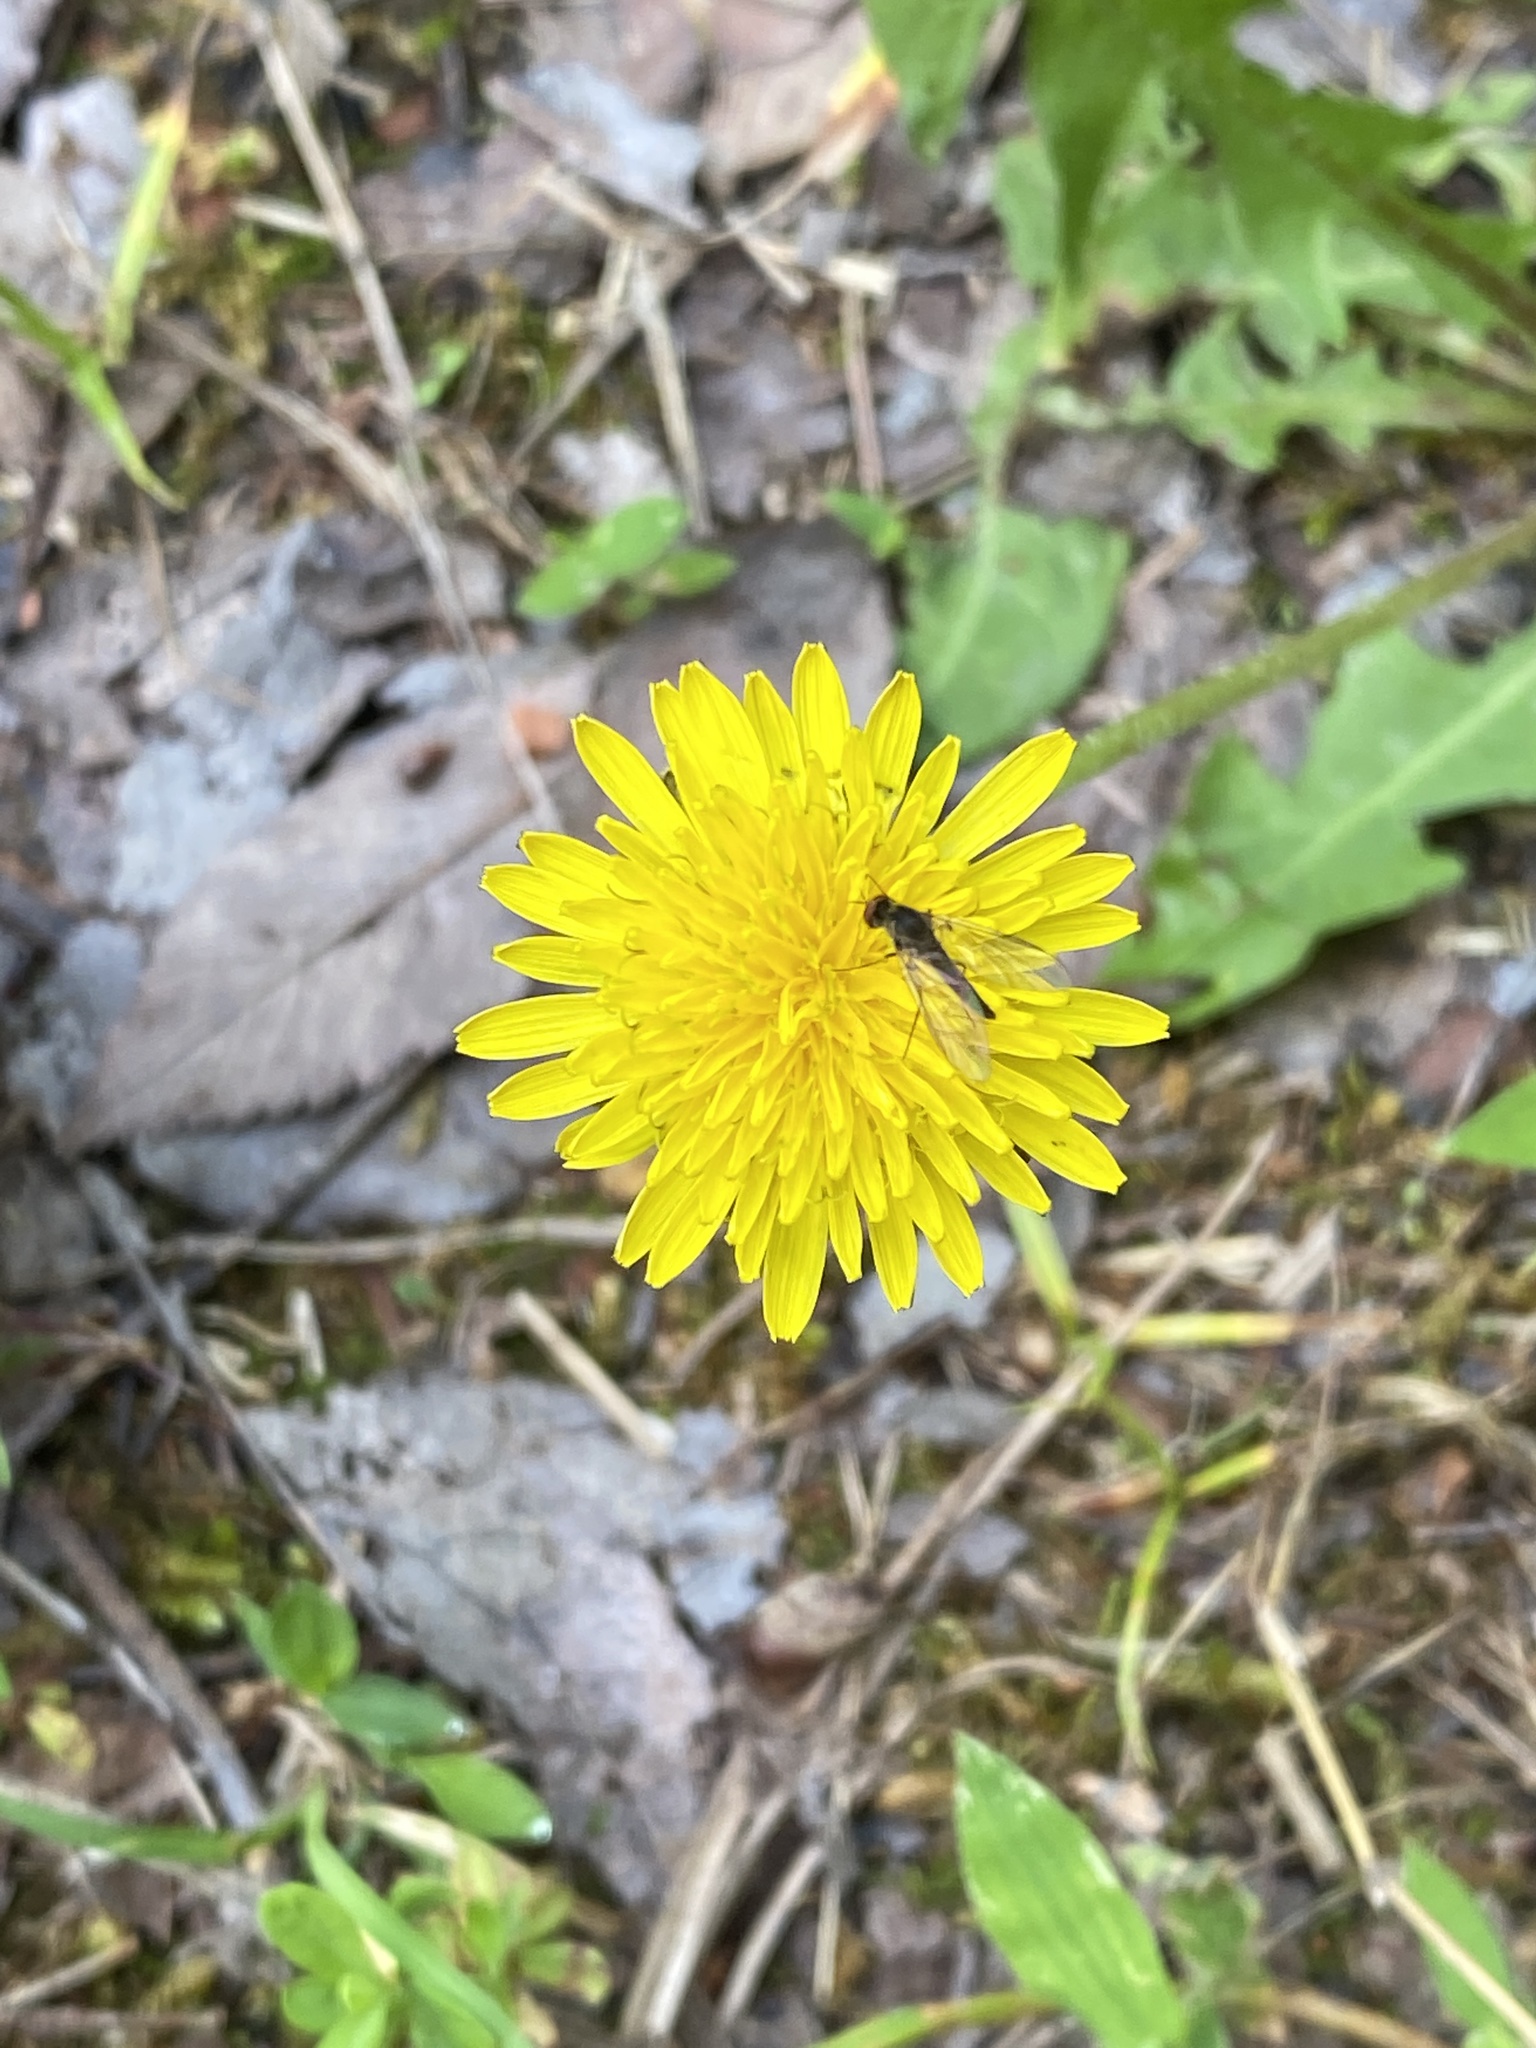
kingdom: Plantae
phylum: Tracheophyta
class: Magnoliopsida
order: Asterales
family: Asteraceae
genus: Taraxacum
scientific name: Taraxacum officinale
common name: Common dandelion
